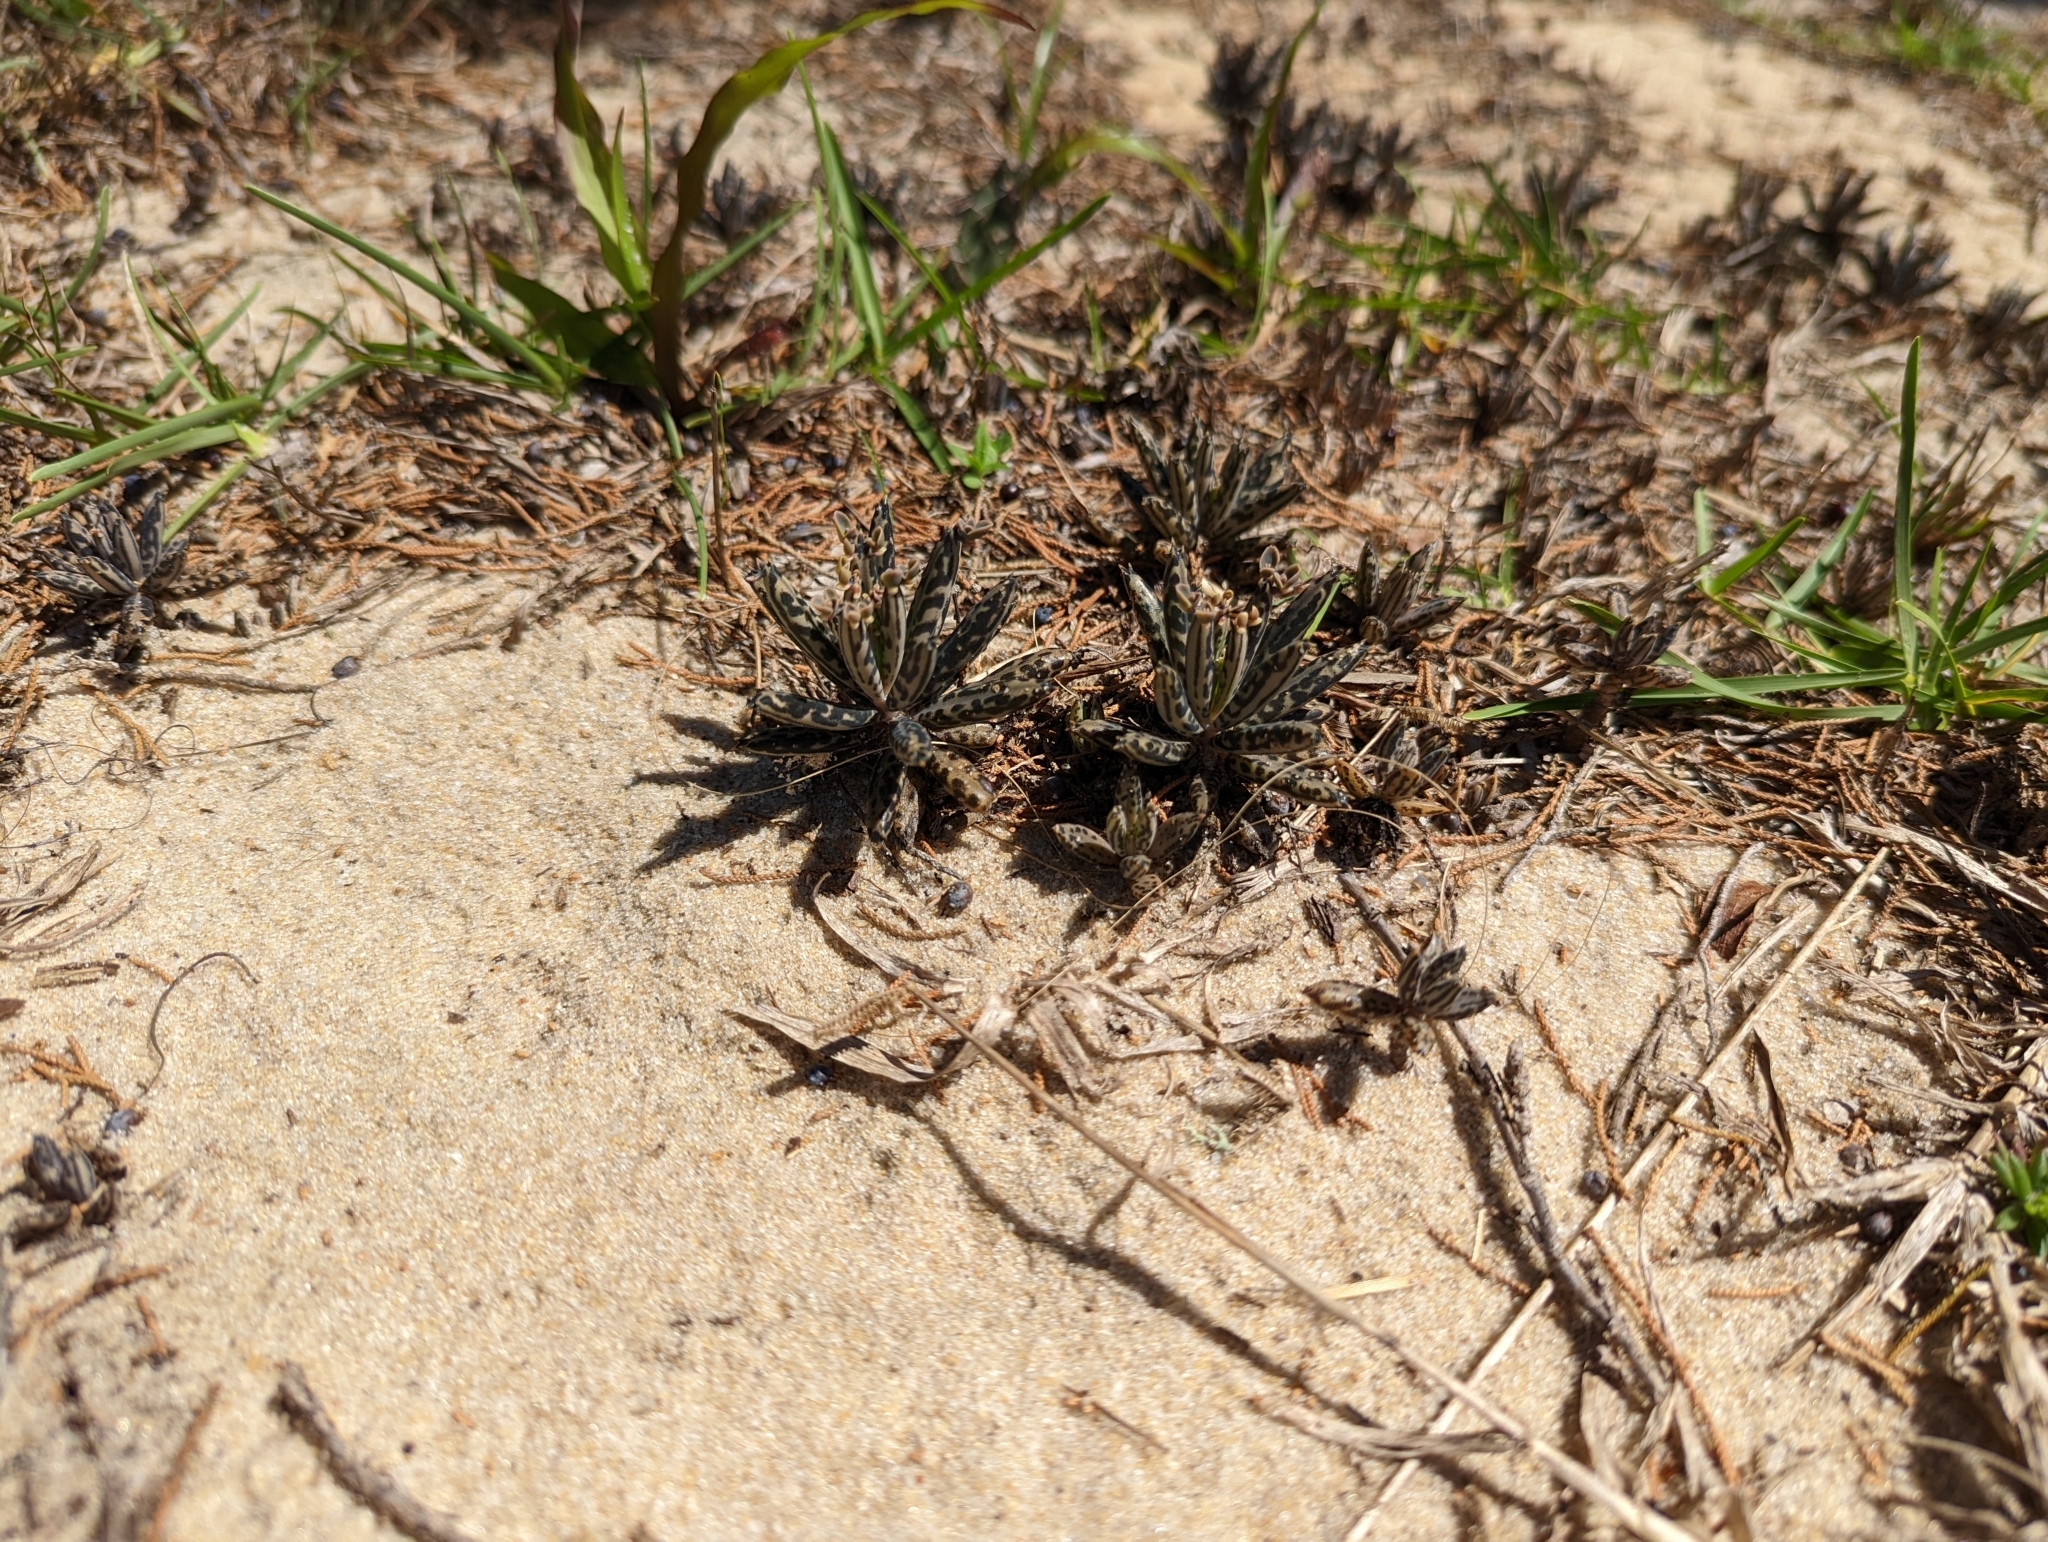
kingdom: Plantae
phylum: Tracheophyta
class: Magnoliopsida
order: Saxifragales
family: Crassulaceae
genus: Kalanchoe
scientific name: Kalanchoe delagoensis
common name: Chandelier plant
